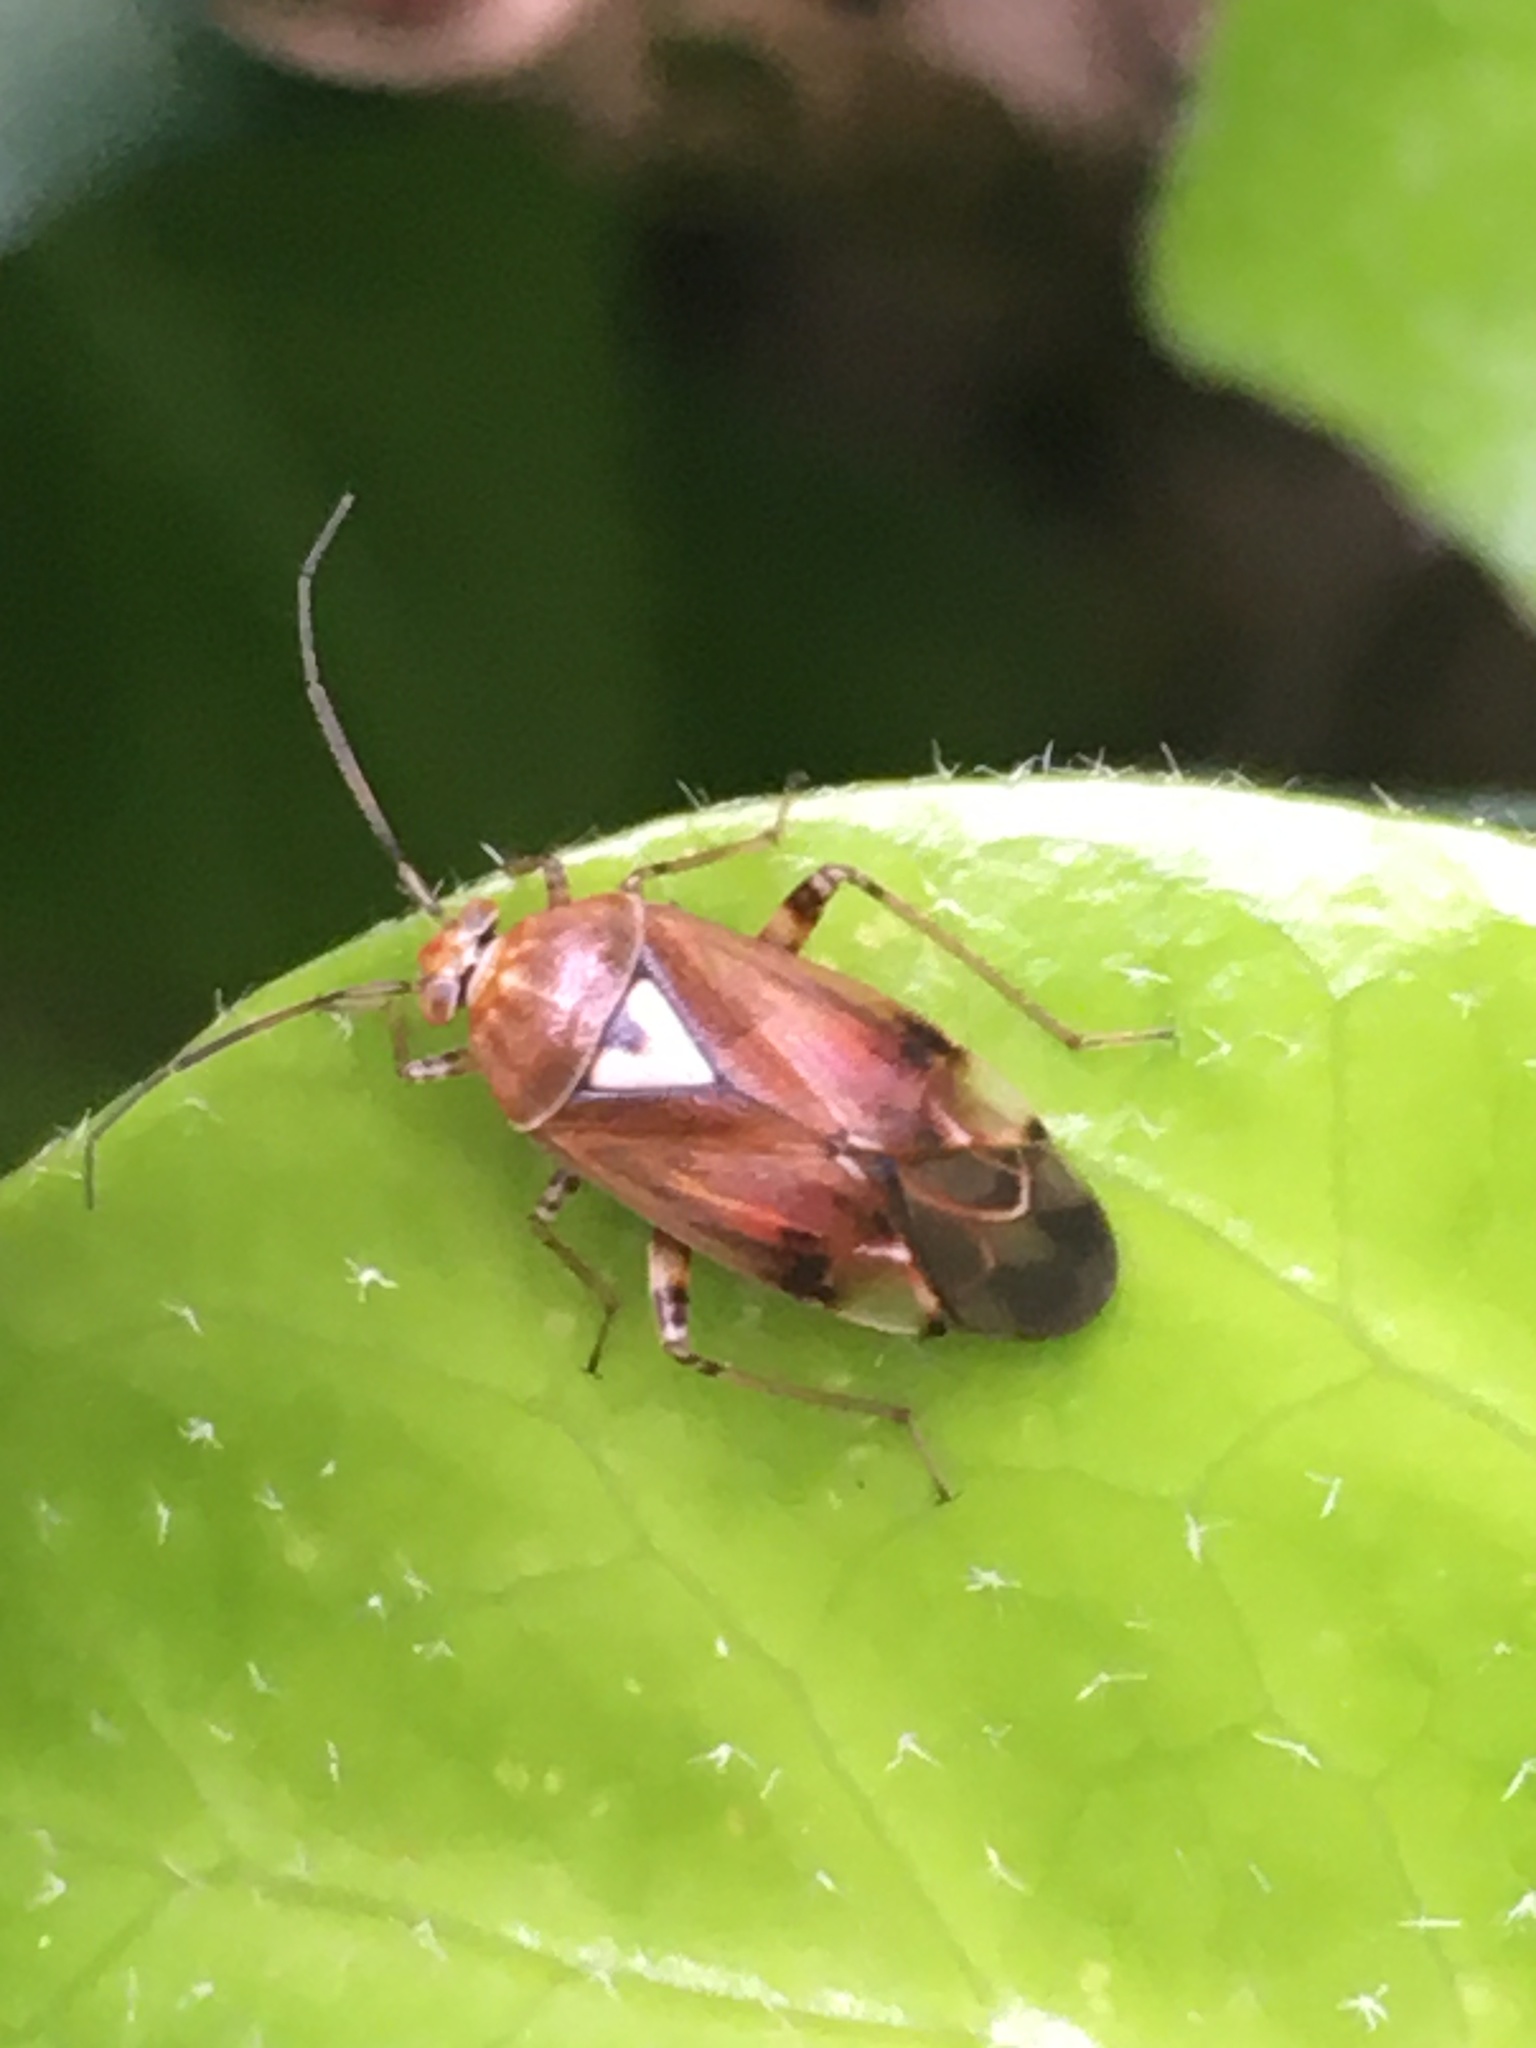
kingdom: Animalia
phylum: Arthropoda
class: Insecta
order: Hemiptera
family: Miridae
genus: Lygus
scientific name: Lygus pratensis
